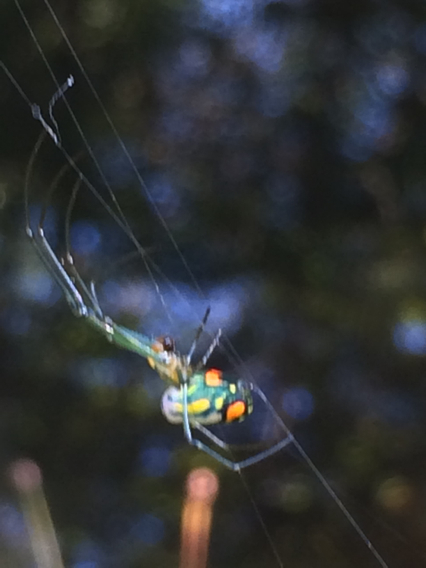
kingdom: Animalia
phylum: Arthropoda
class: Arachnida
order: Araneae
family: Tetragnathidae
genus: Leucauge
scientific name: Leucauge argyrobapta
